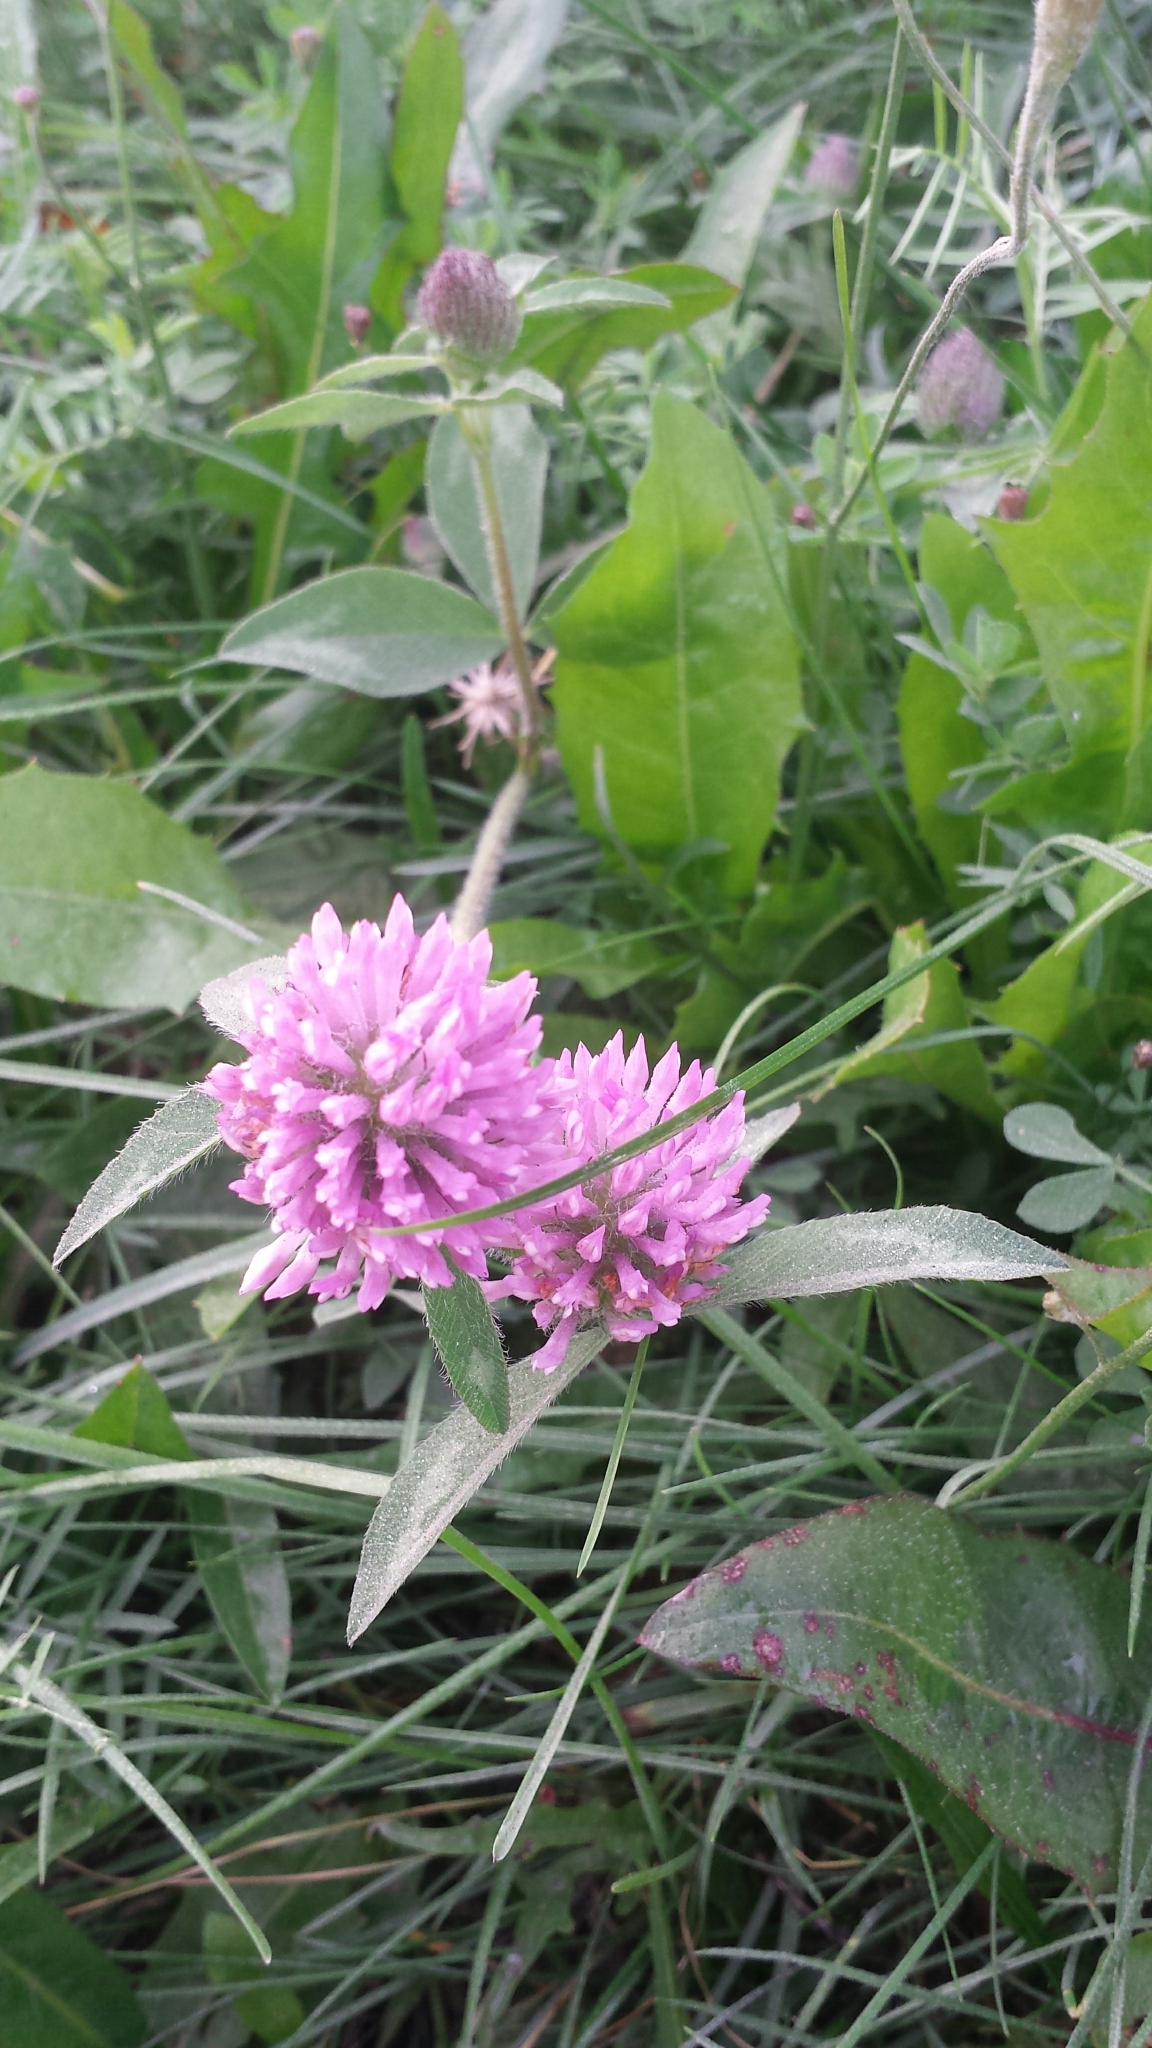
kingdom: Plantae
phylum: Tracheophyta
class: Magnoliopsida
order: Fabales
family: Fabaceae
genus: Trifolium
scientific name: Trifolium pratense
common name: Red clover
